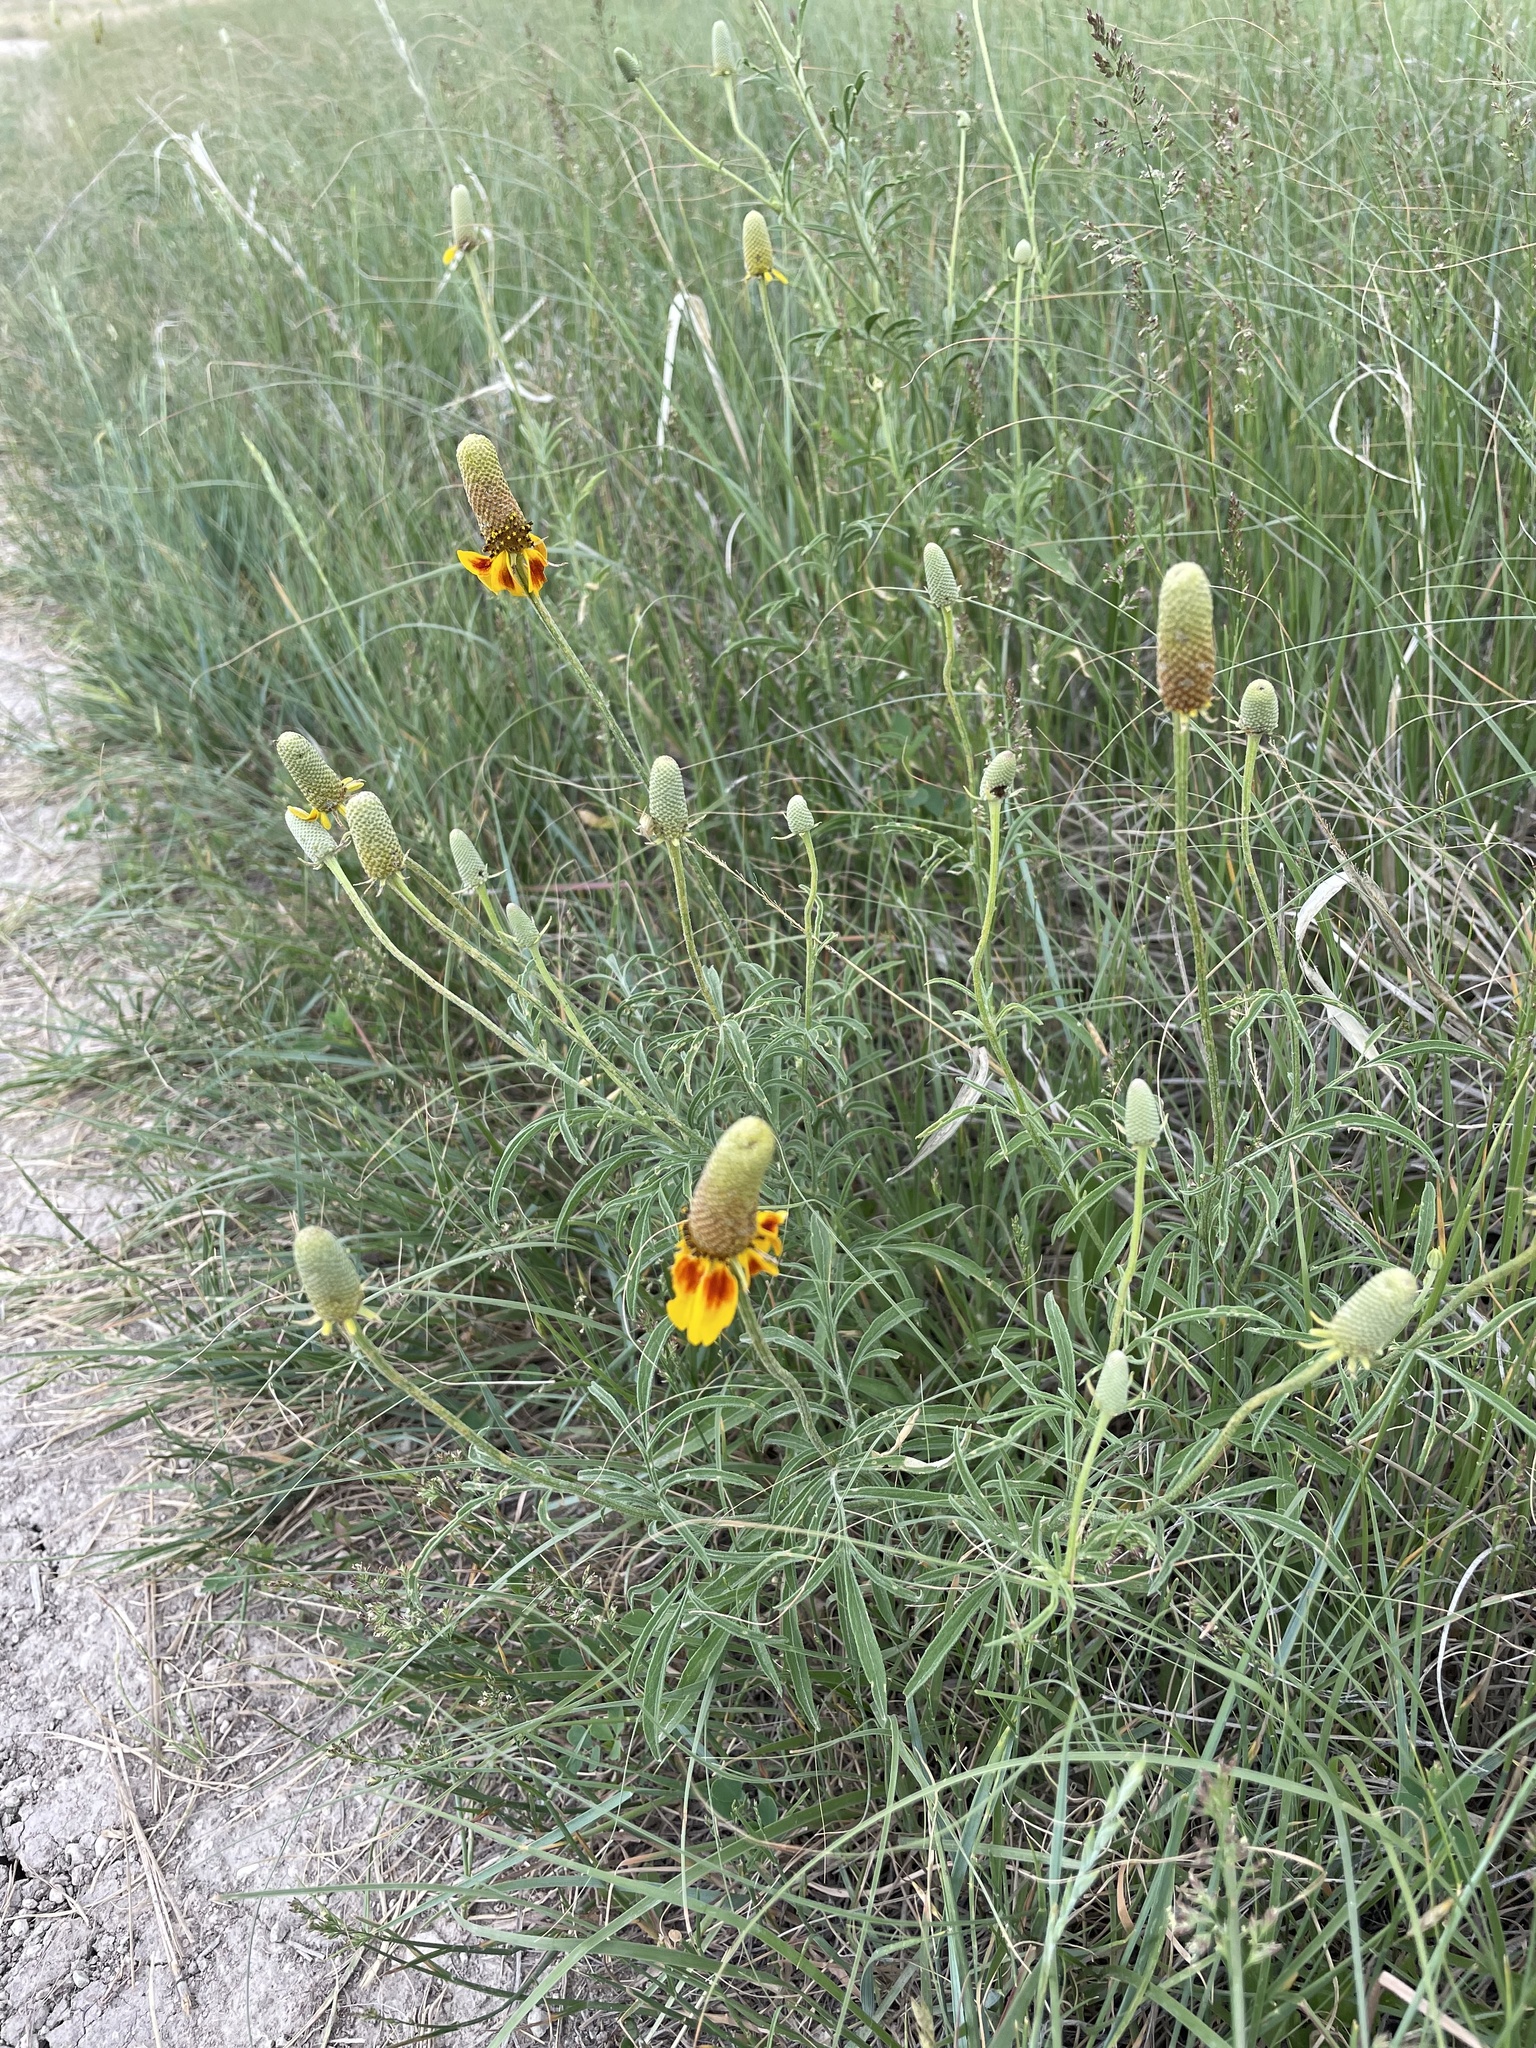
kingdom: Plantae
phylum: Tracheophyta
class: Magnoliopsida
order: Asterales
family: Asteraceae
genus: Ratibida
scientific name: Ratibida columnifera
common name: Prairie coneflower
